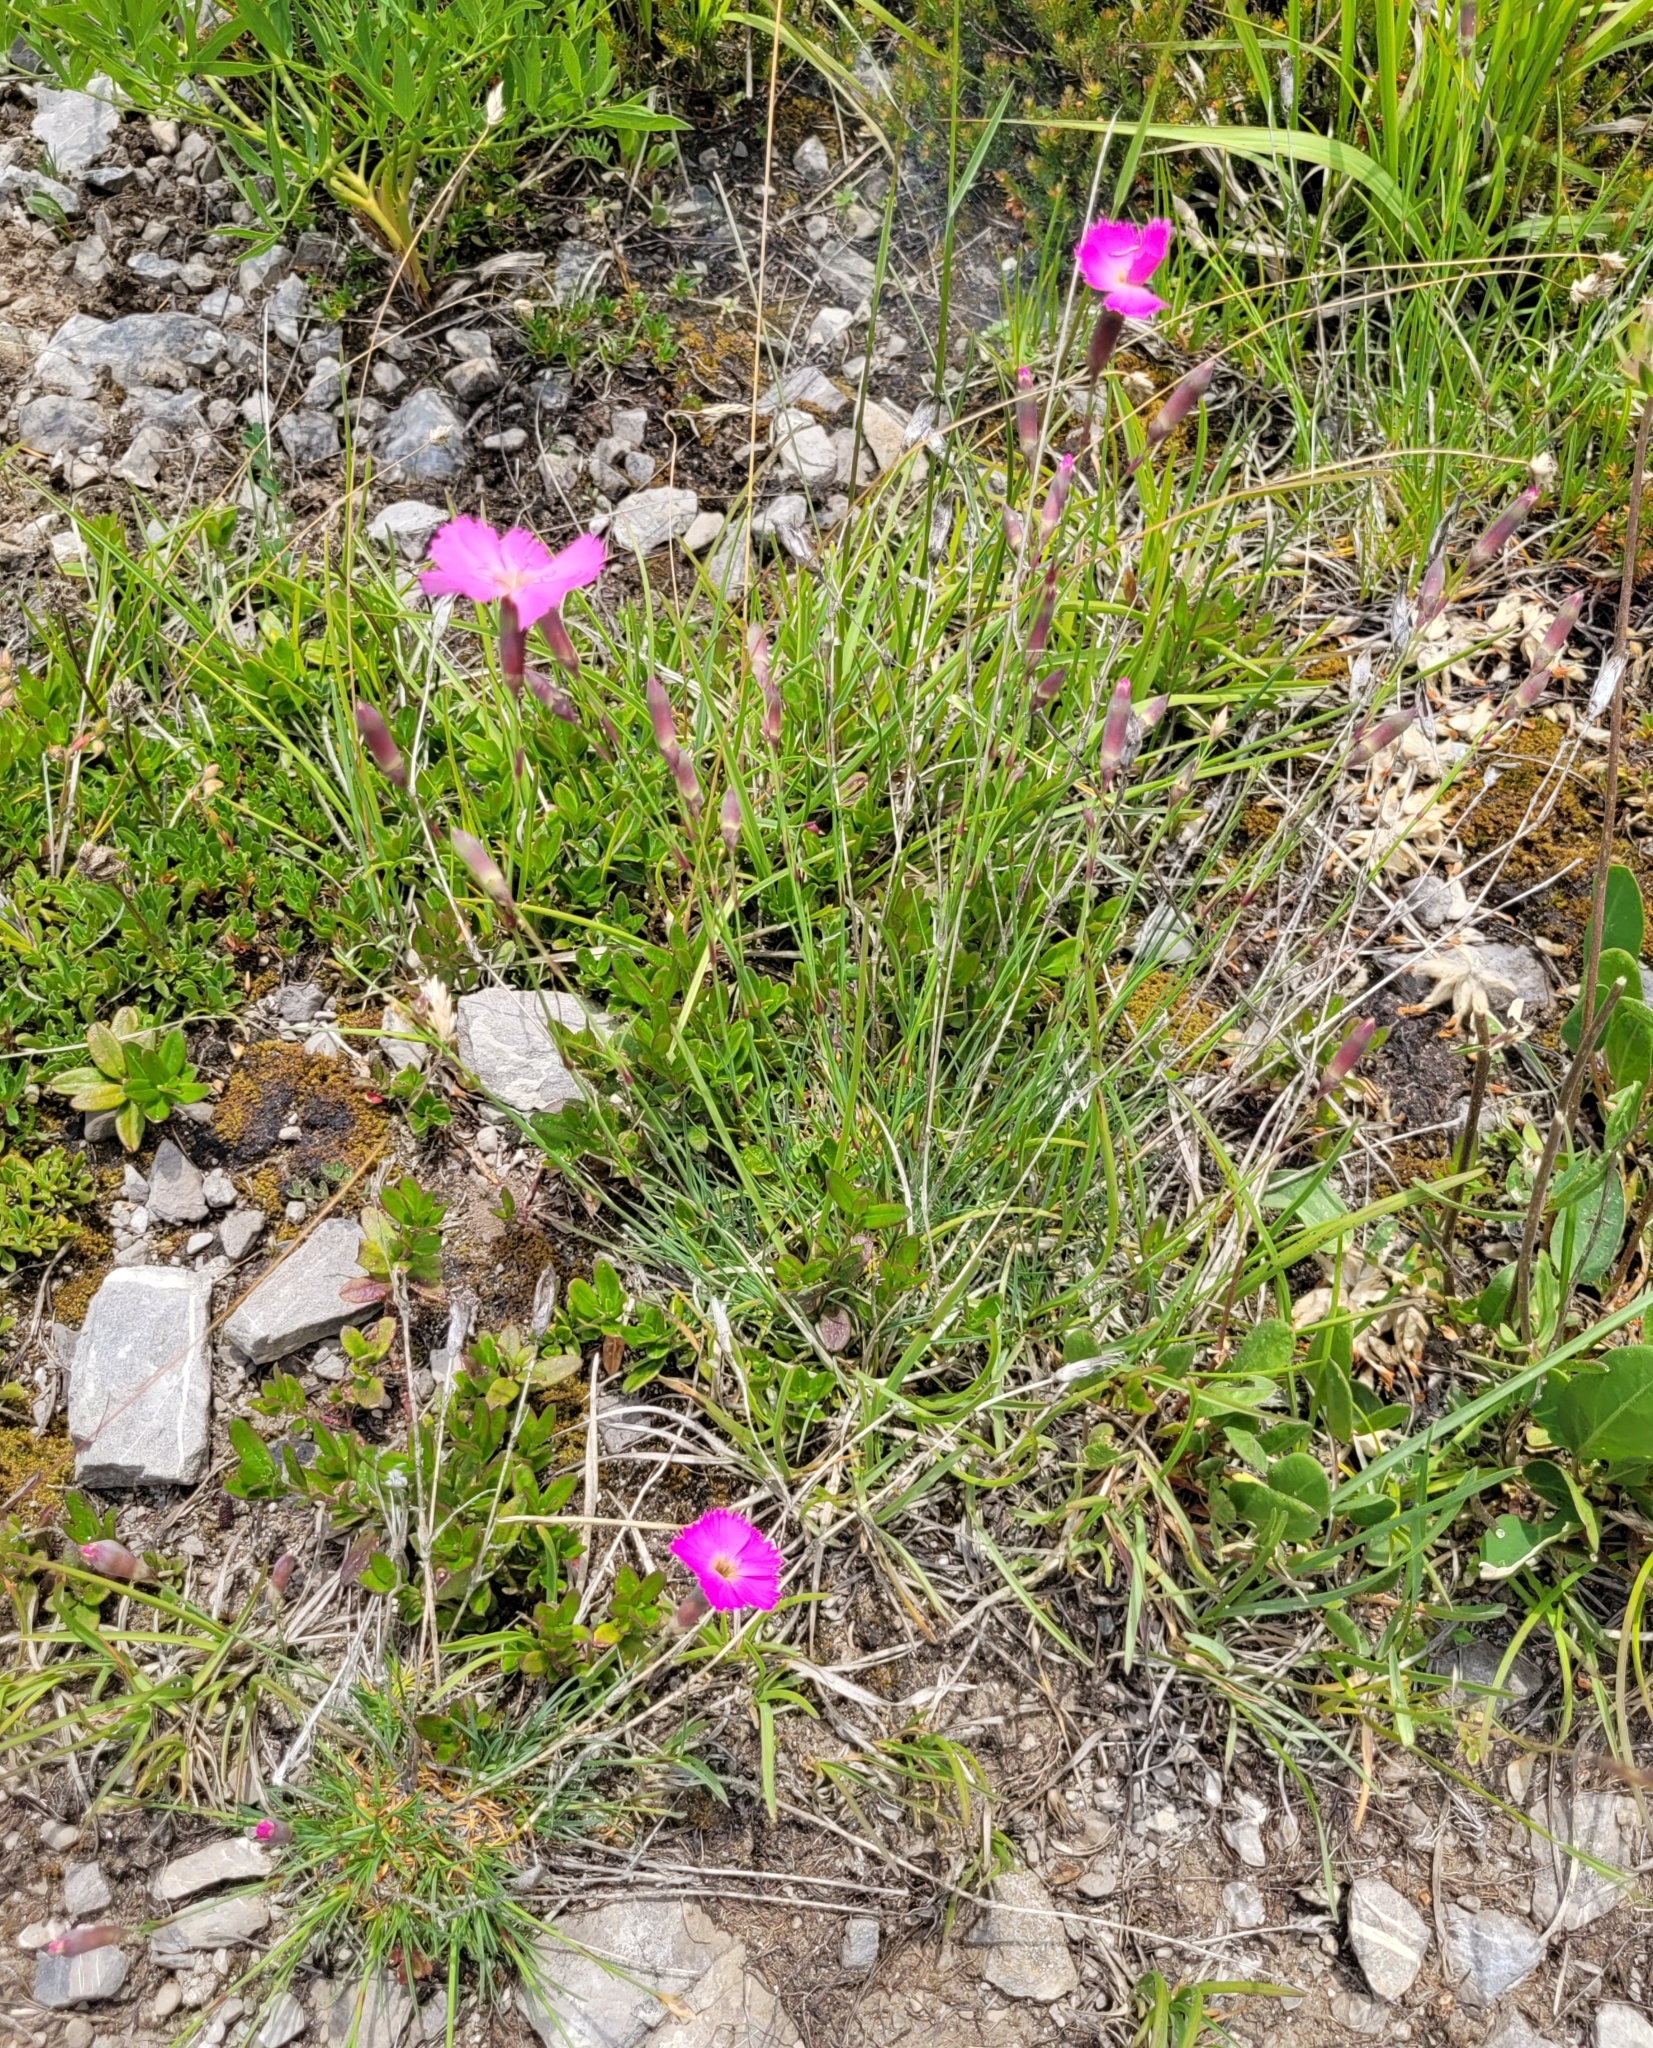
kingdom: Plantae
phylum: Tracheophyta
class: Magnoliopsida
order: Caryophyllales
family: Caryophyllaceae
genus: Dianthus
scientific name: Dianthus sylvestris
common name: Wood pink
